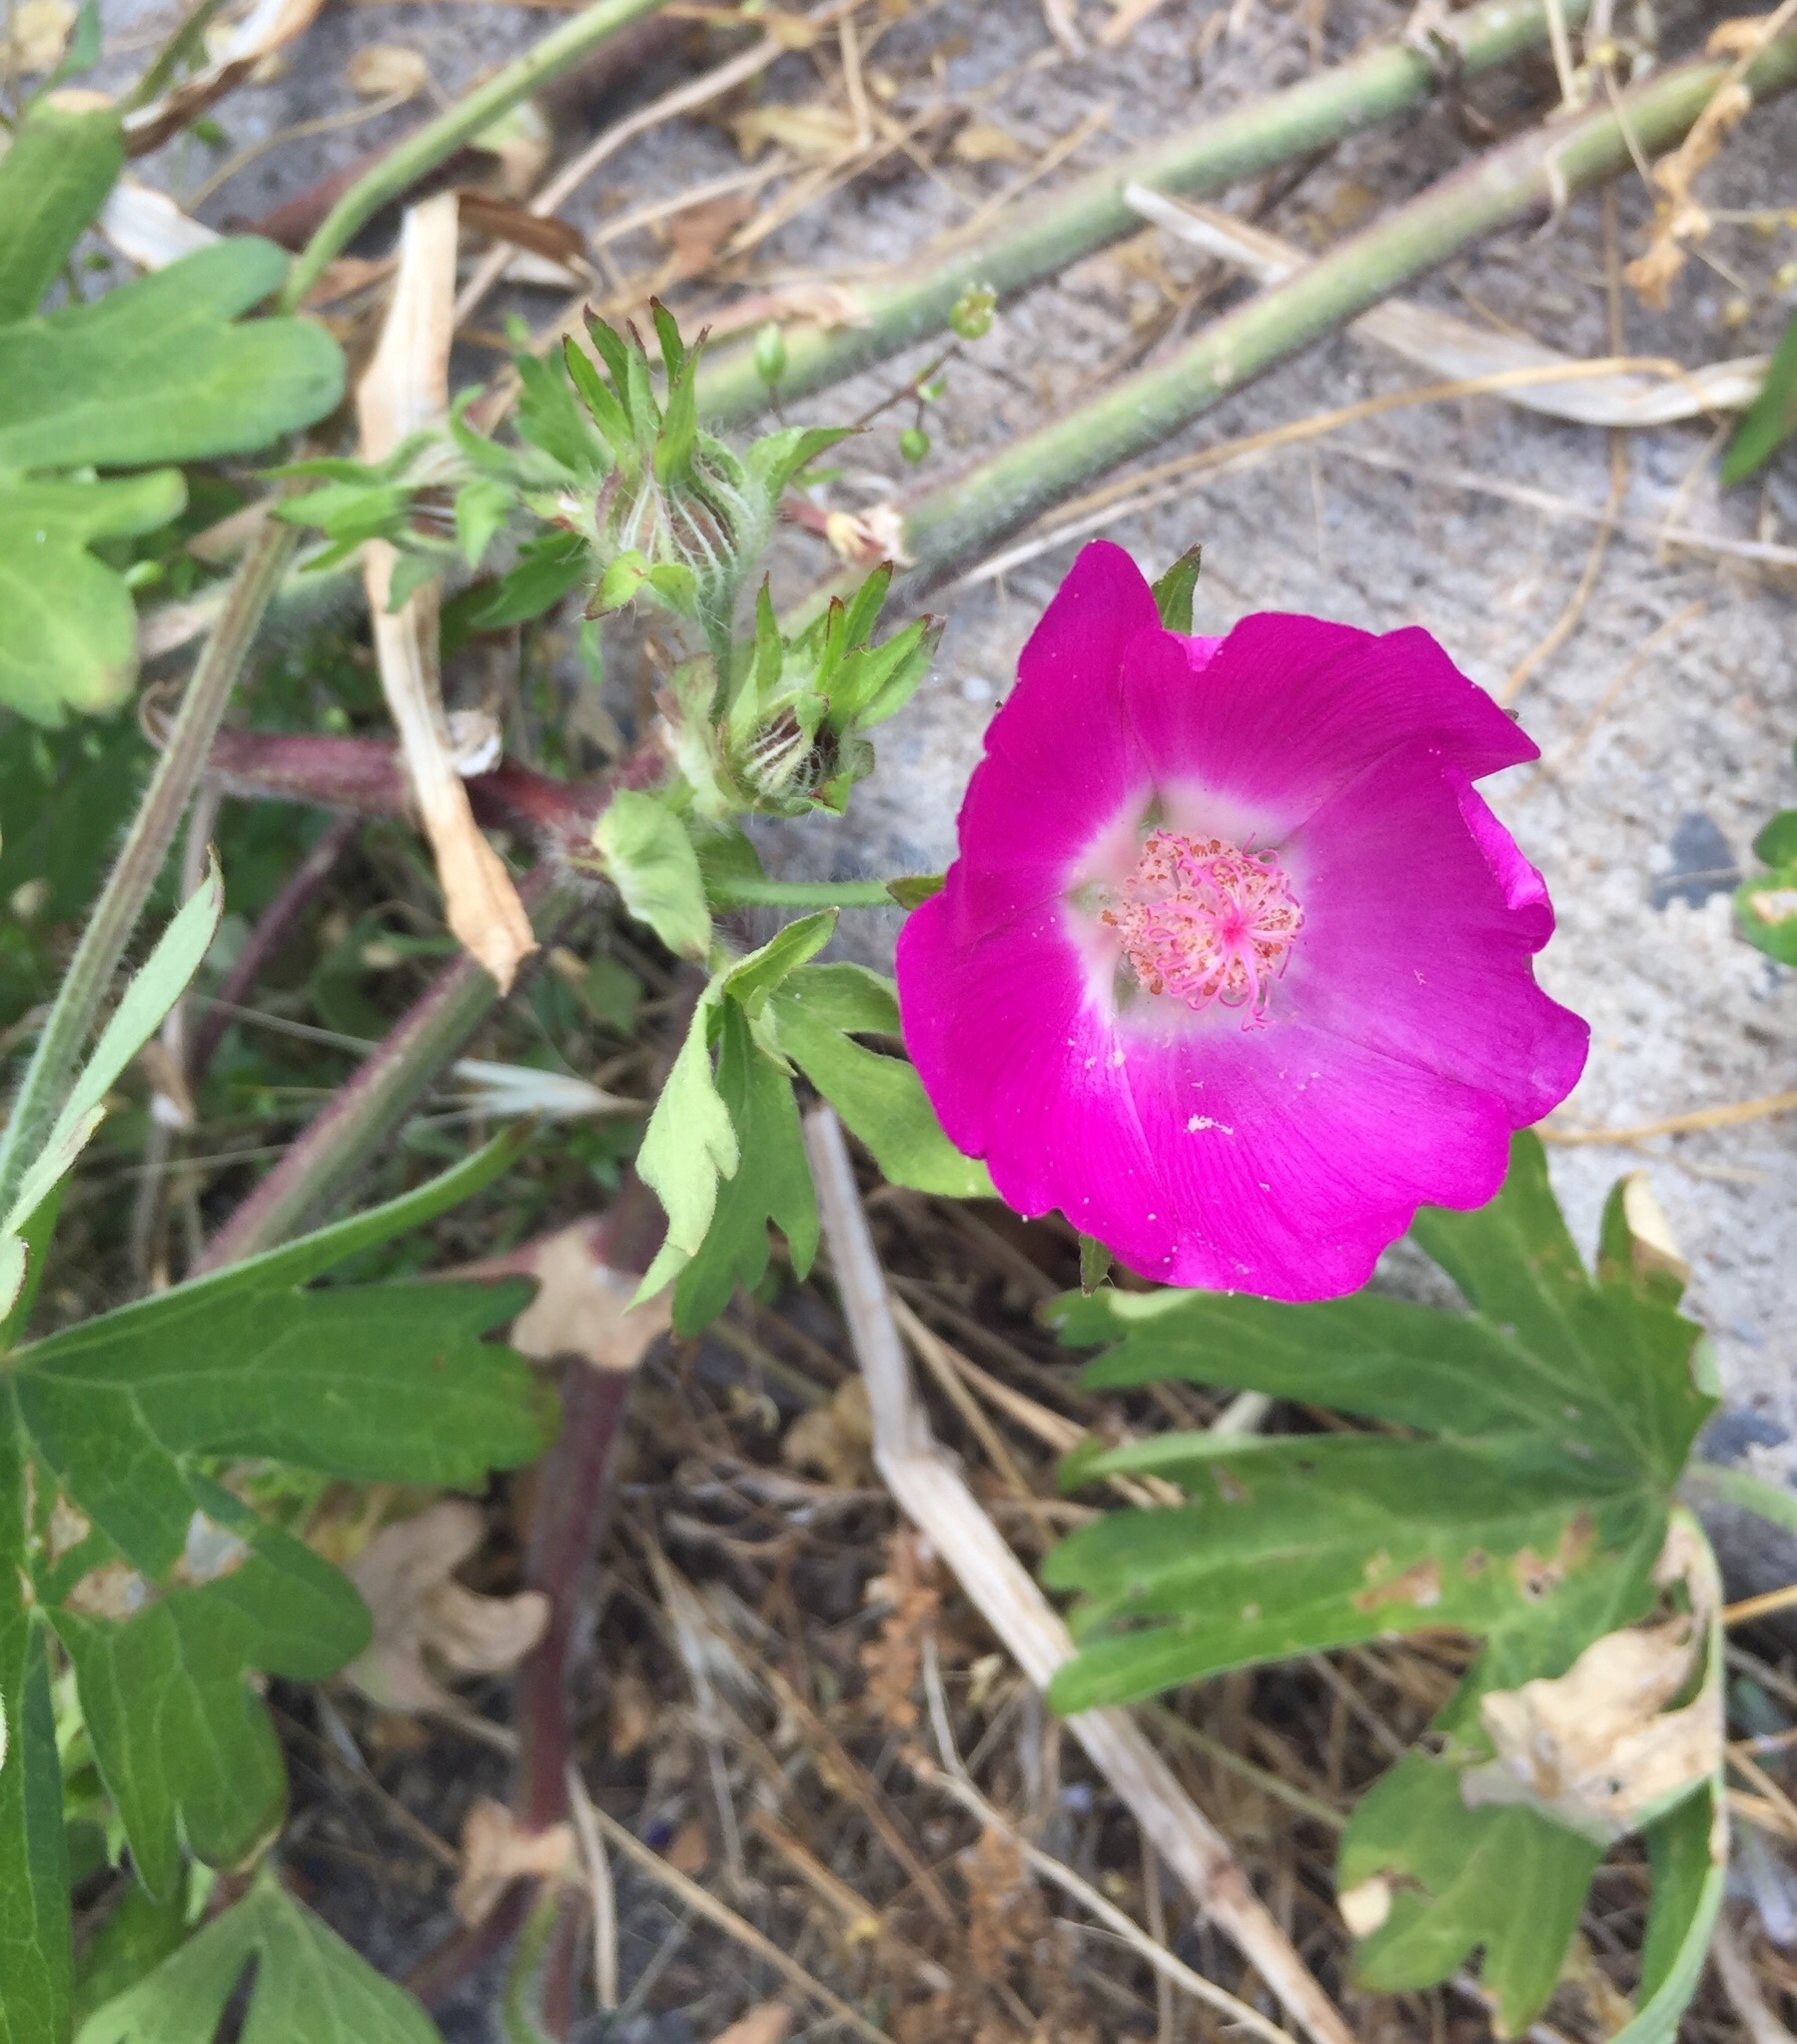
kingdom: Plantae
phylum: Tracheophyta
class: Magnoliopsida
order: Malvales
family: Malvaceae
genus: Callirhoe
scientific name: Callirhoe involucrata
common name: Purple poppy-mallow
